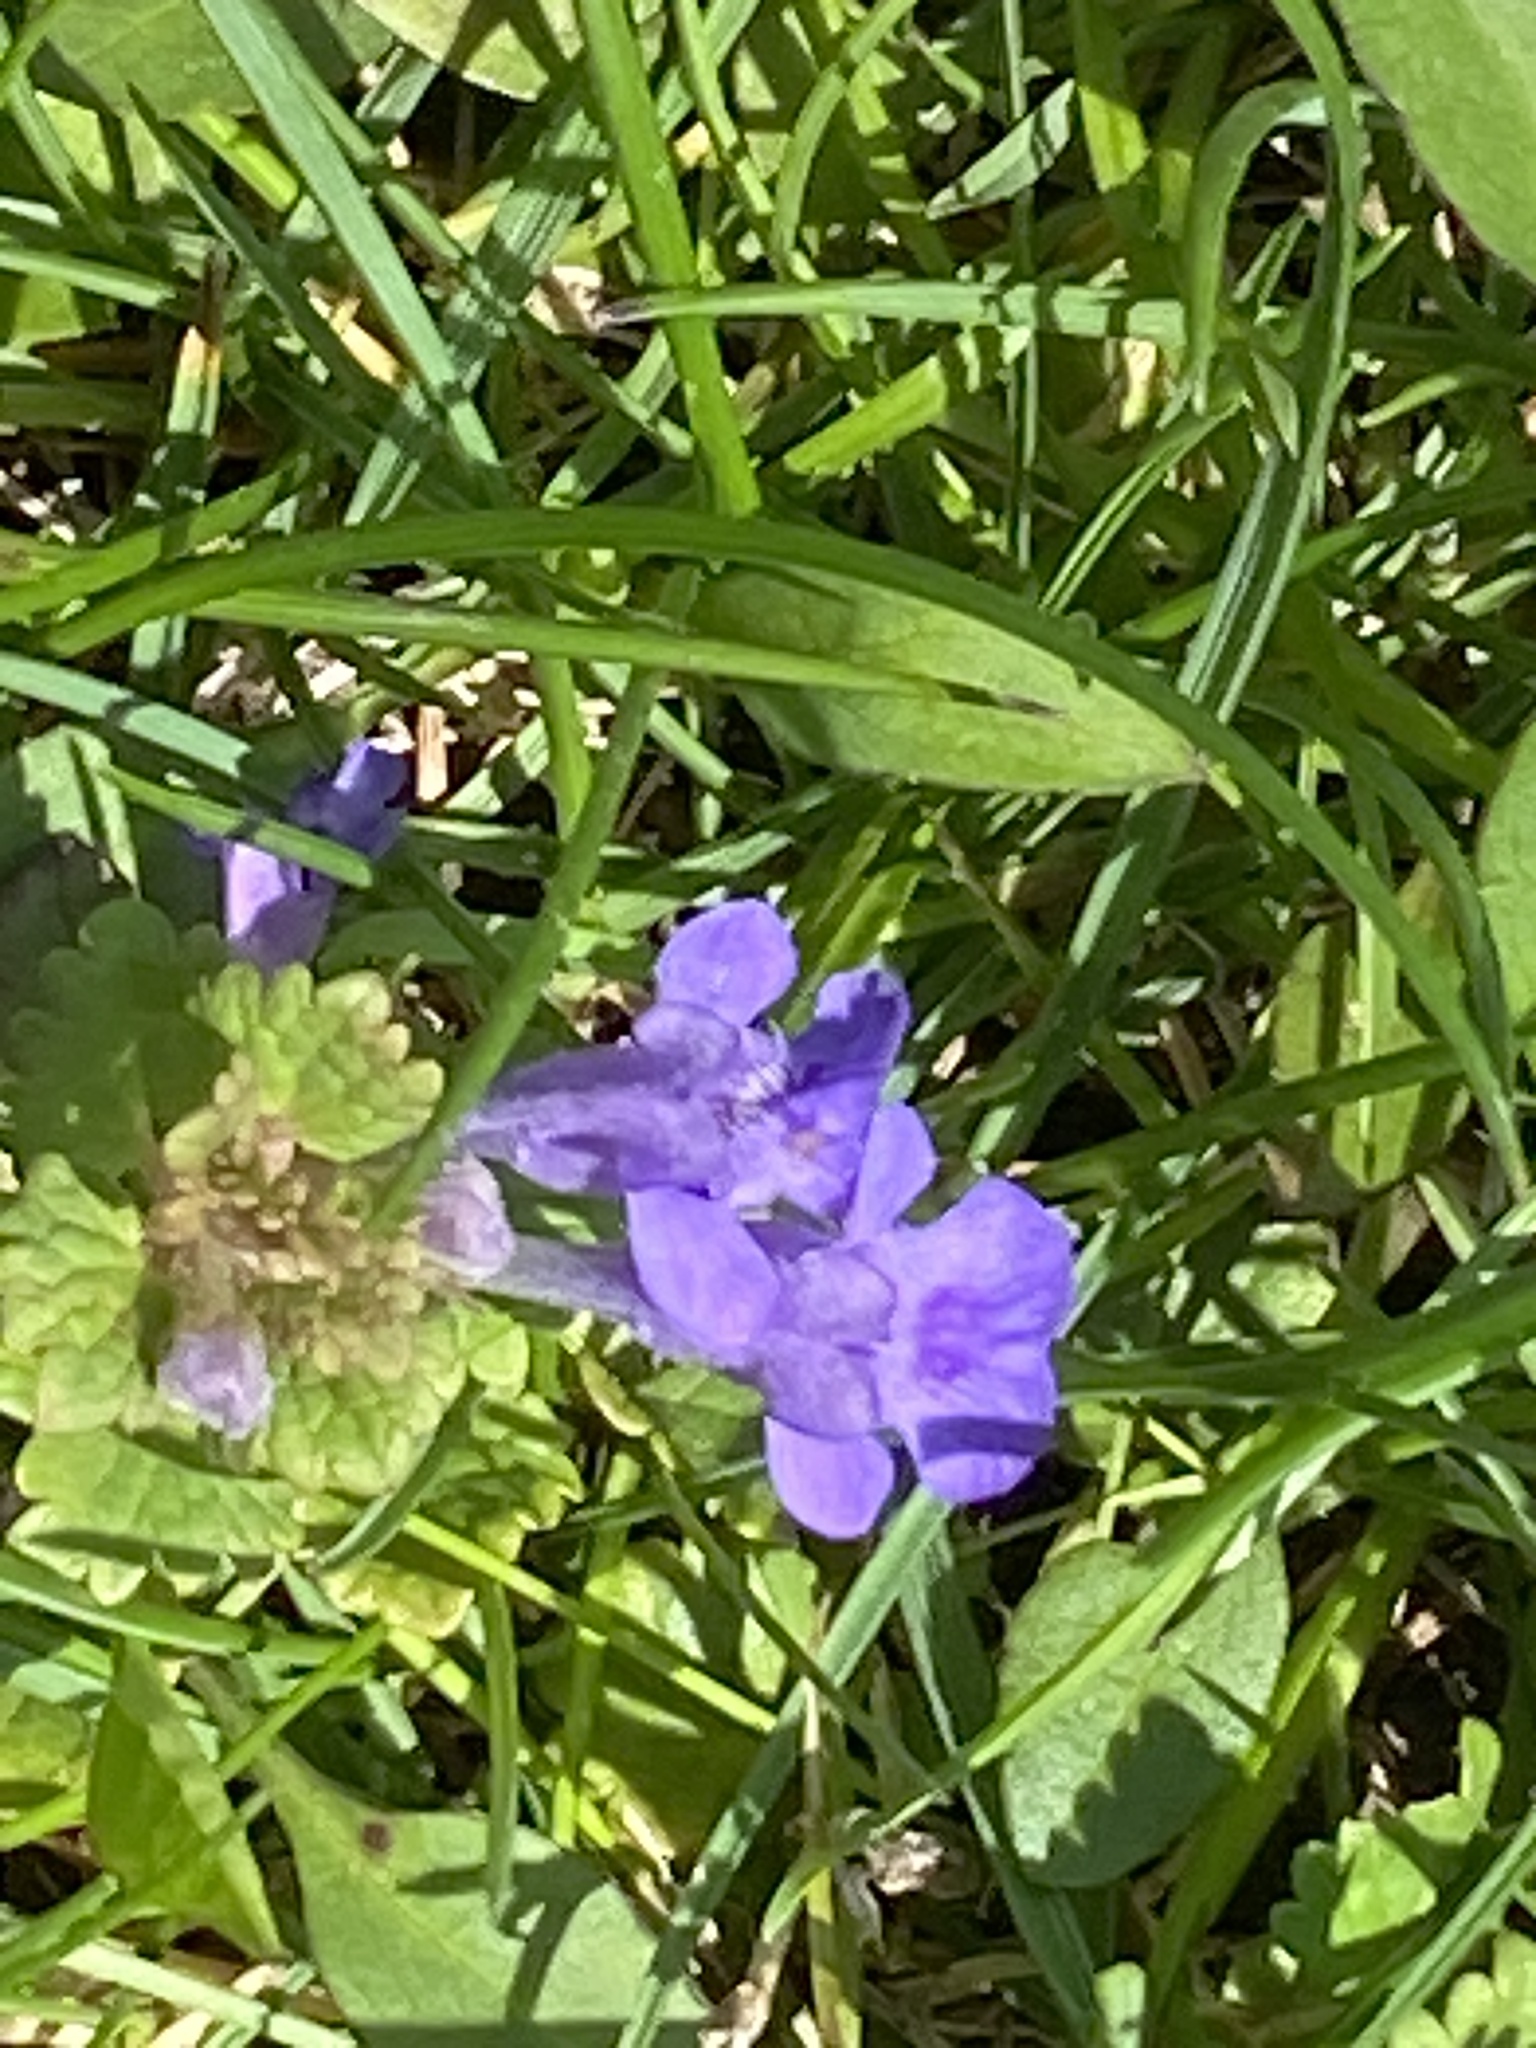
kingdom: Plantae
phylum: Tracheophyta
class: Magnoliopsida
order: Lamiales
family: Lamiaceae
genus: Glechoma
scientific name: Glechoma hederacea
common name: Ground ivy
